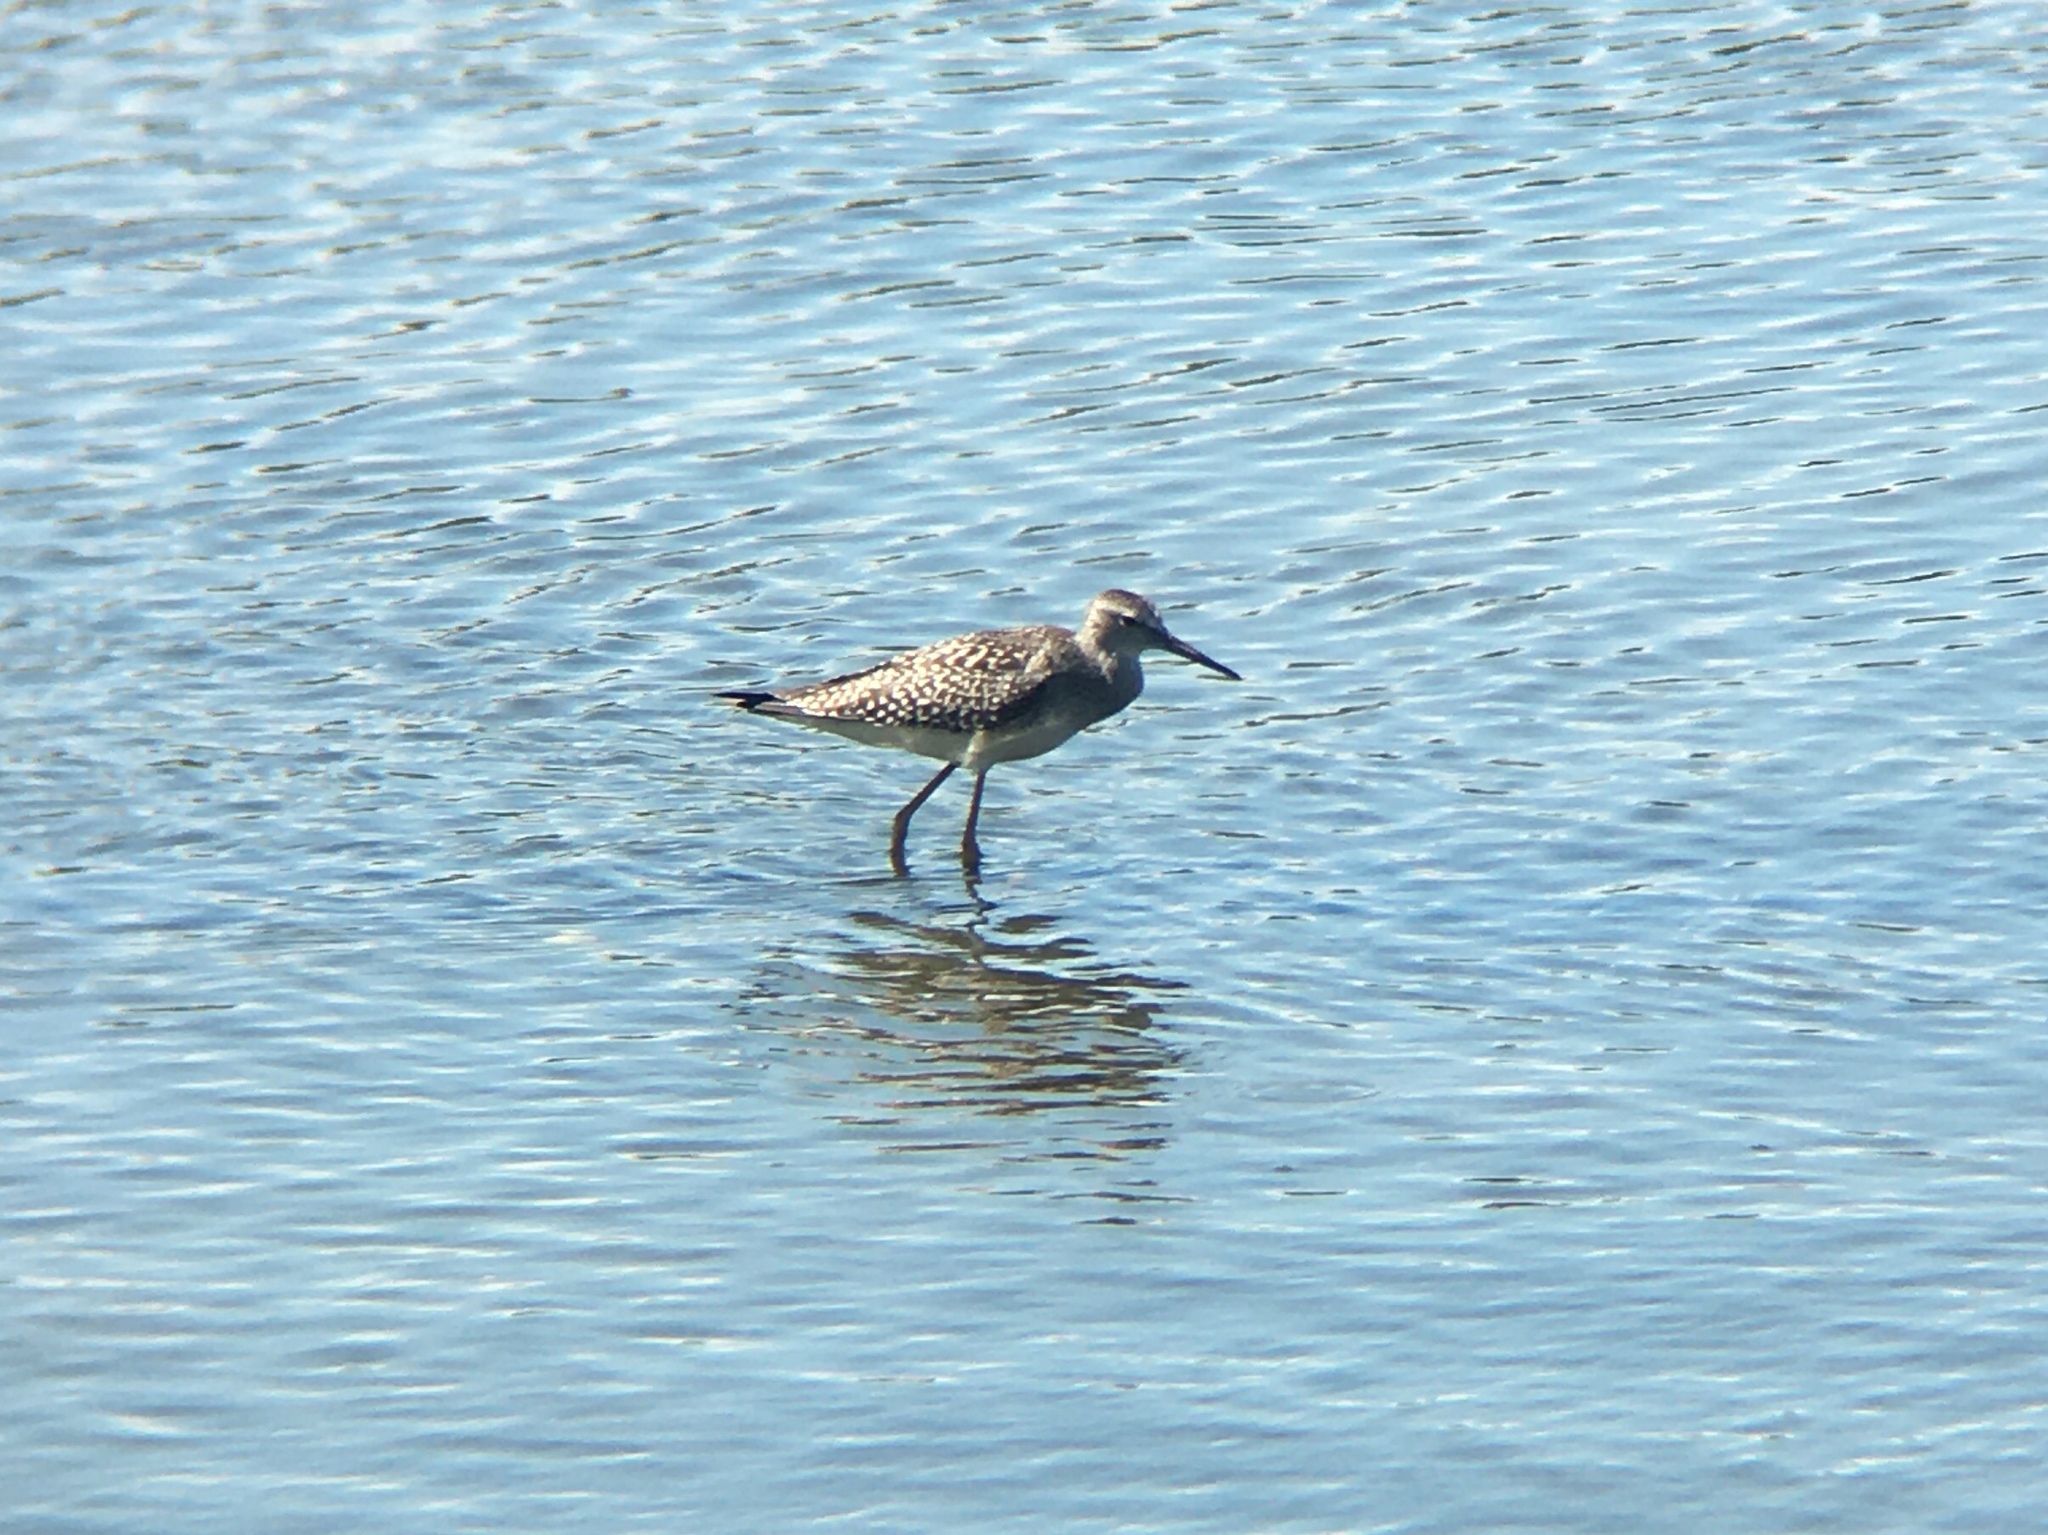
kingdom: Animalia
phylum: Chordata
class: Aves
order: Charadriiformes
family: Scolopacidae
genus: Tringa
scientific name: Tringa flavipes
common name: Lesser yellowlegs
